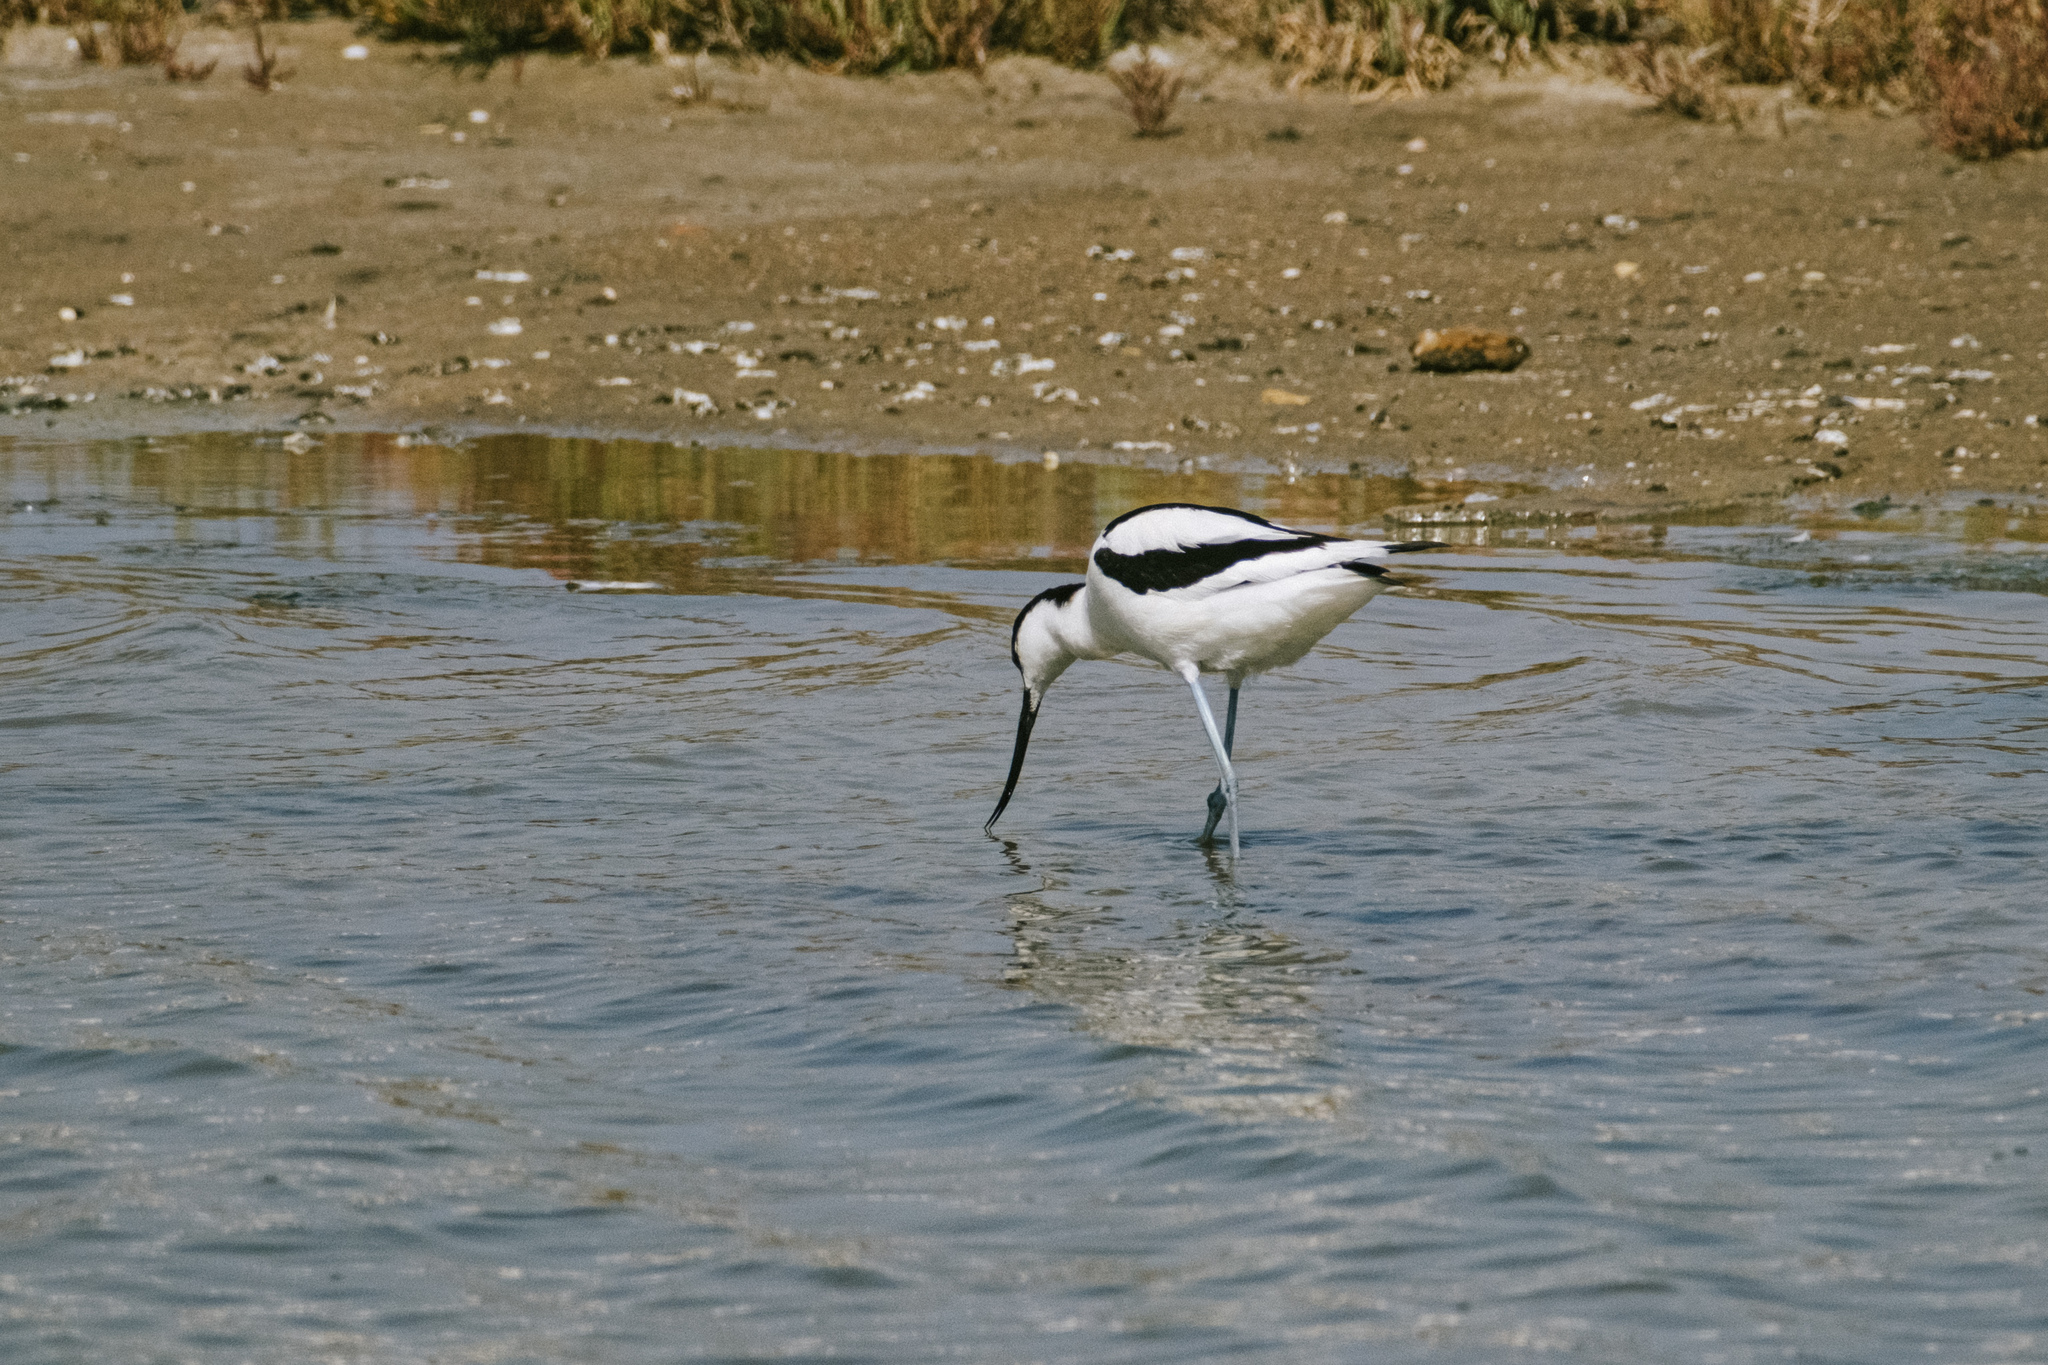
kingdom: Animalia
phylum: Chordata
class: Aves
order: Charadriiformes
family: Recurvirostridae
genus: Recurvirostra
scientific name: Recurvirostra avosetta
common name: Pied avocet
